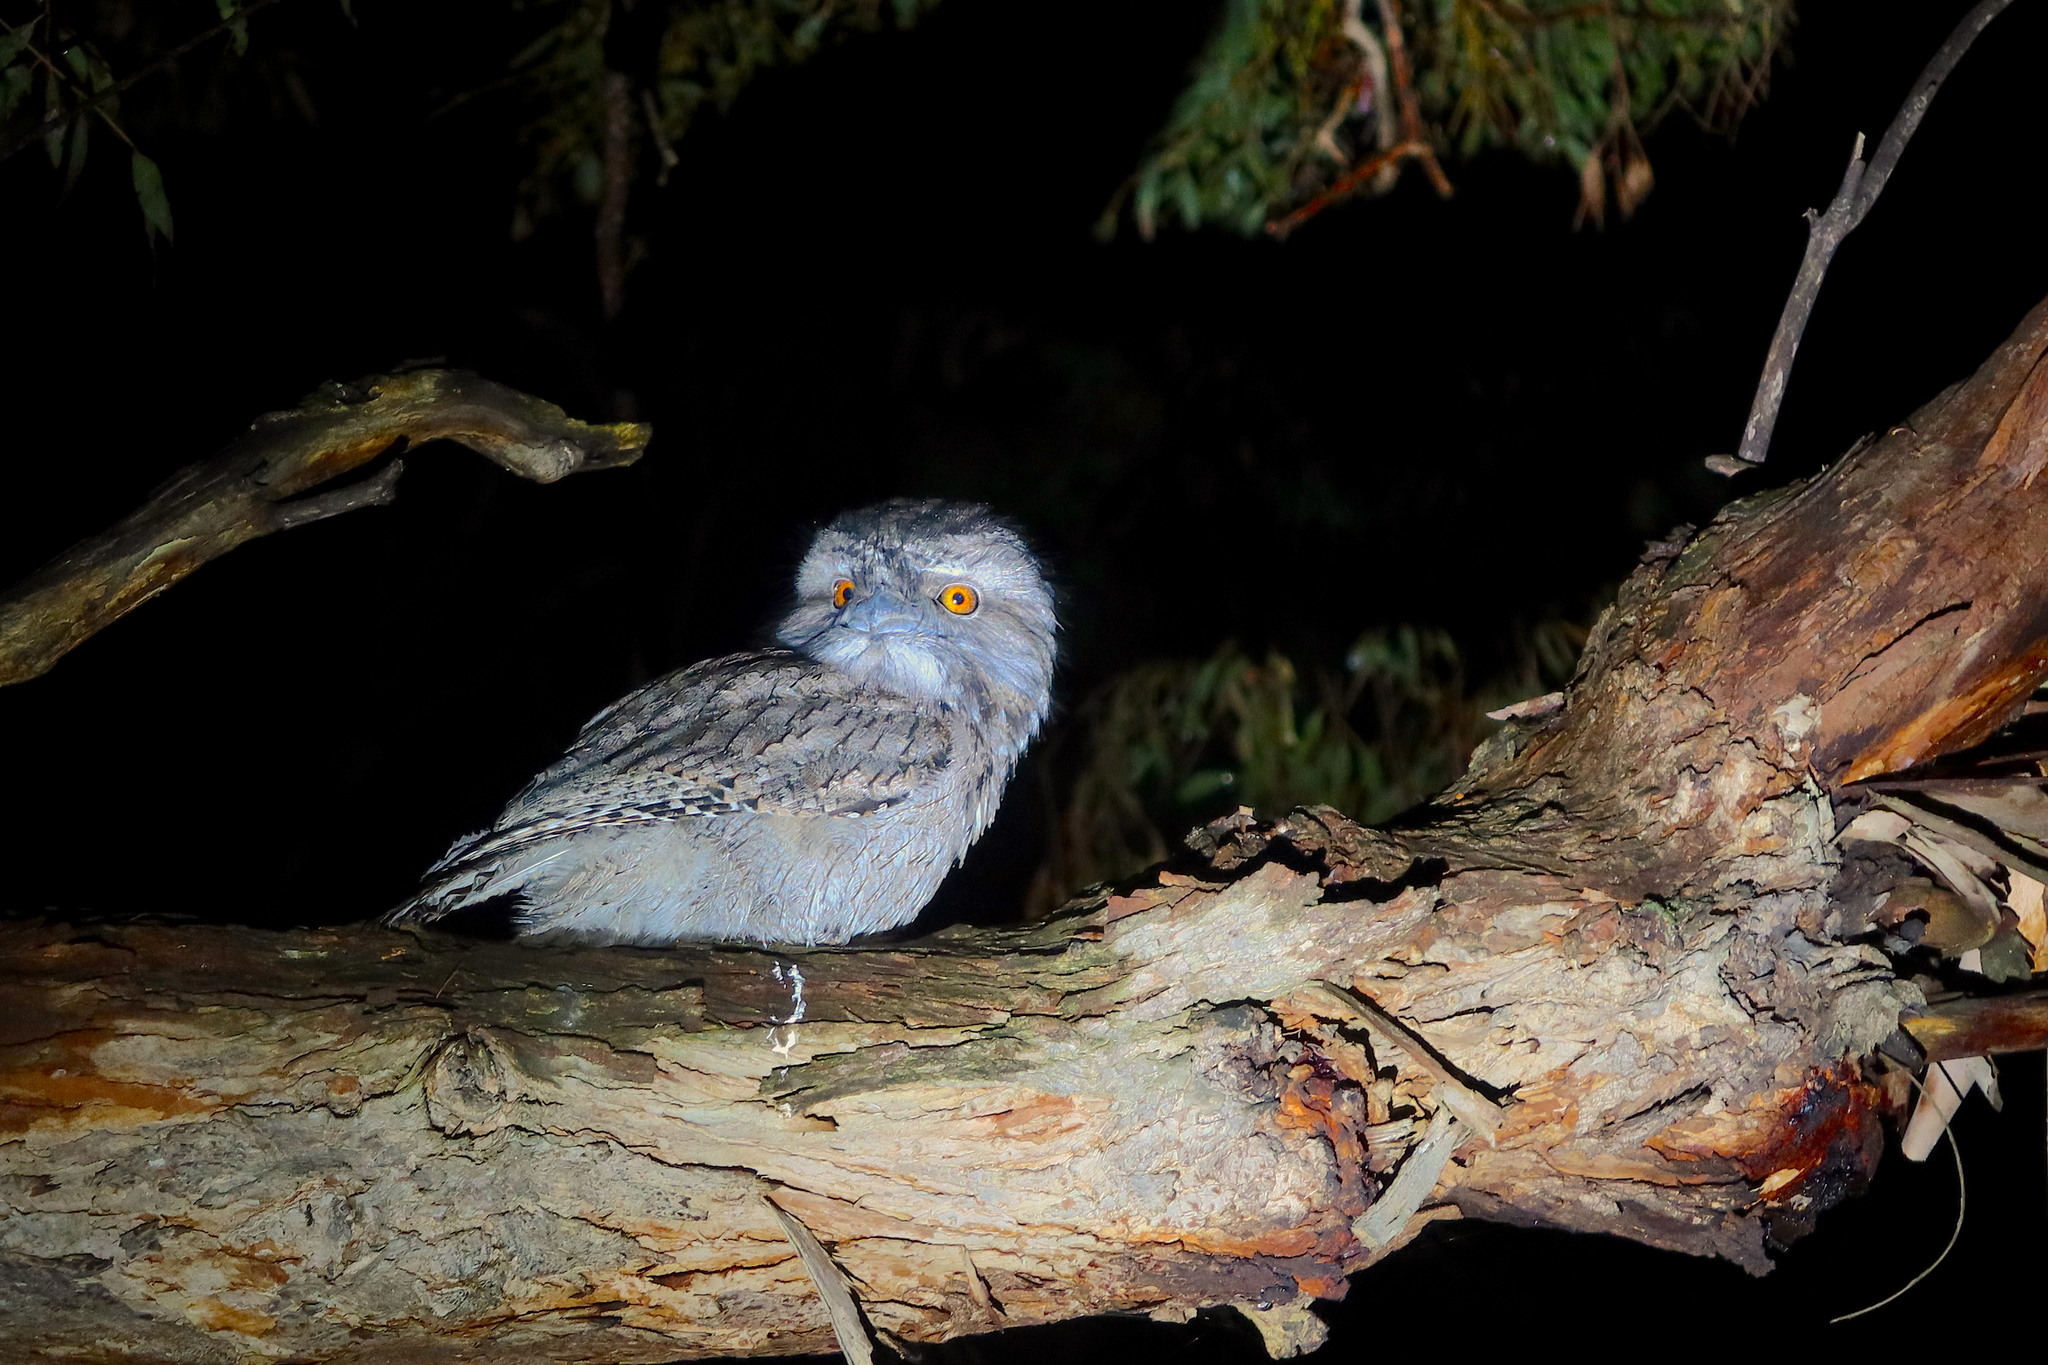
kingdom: Animalia
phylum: Chordata
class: Aves
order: Caprimulgiformes
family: Podargidae
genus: Podargus
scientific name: Podargus strigoides
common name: Tawny frogmouth
